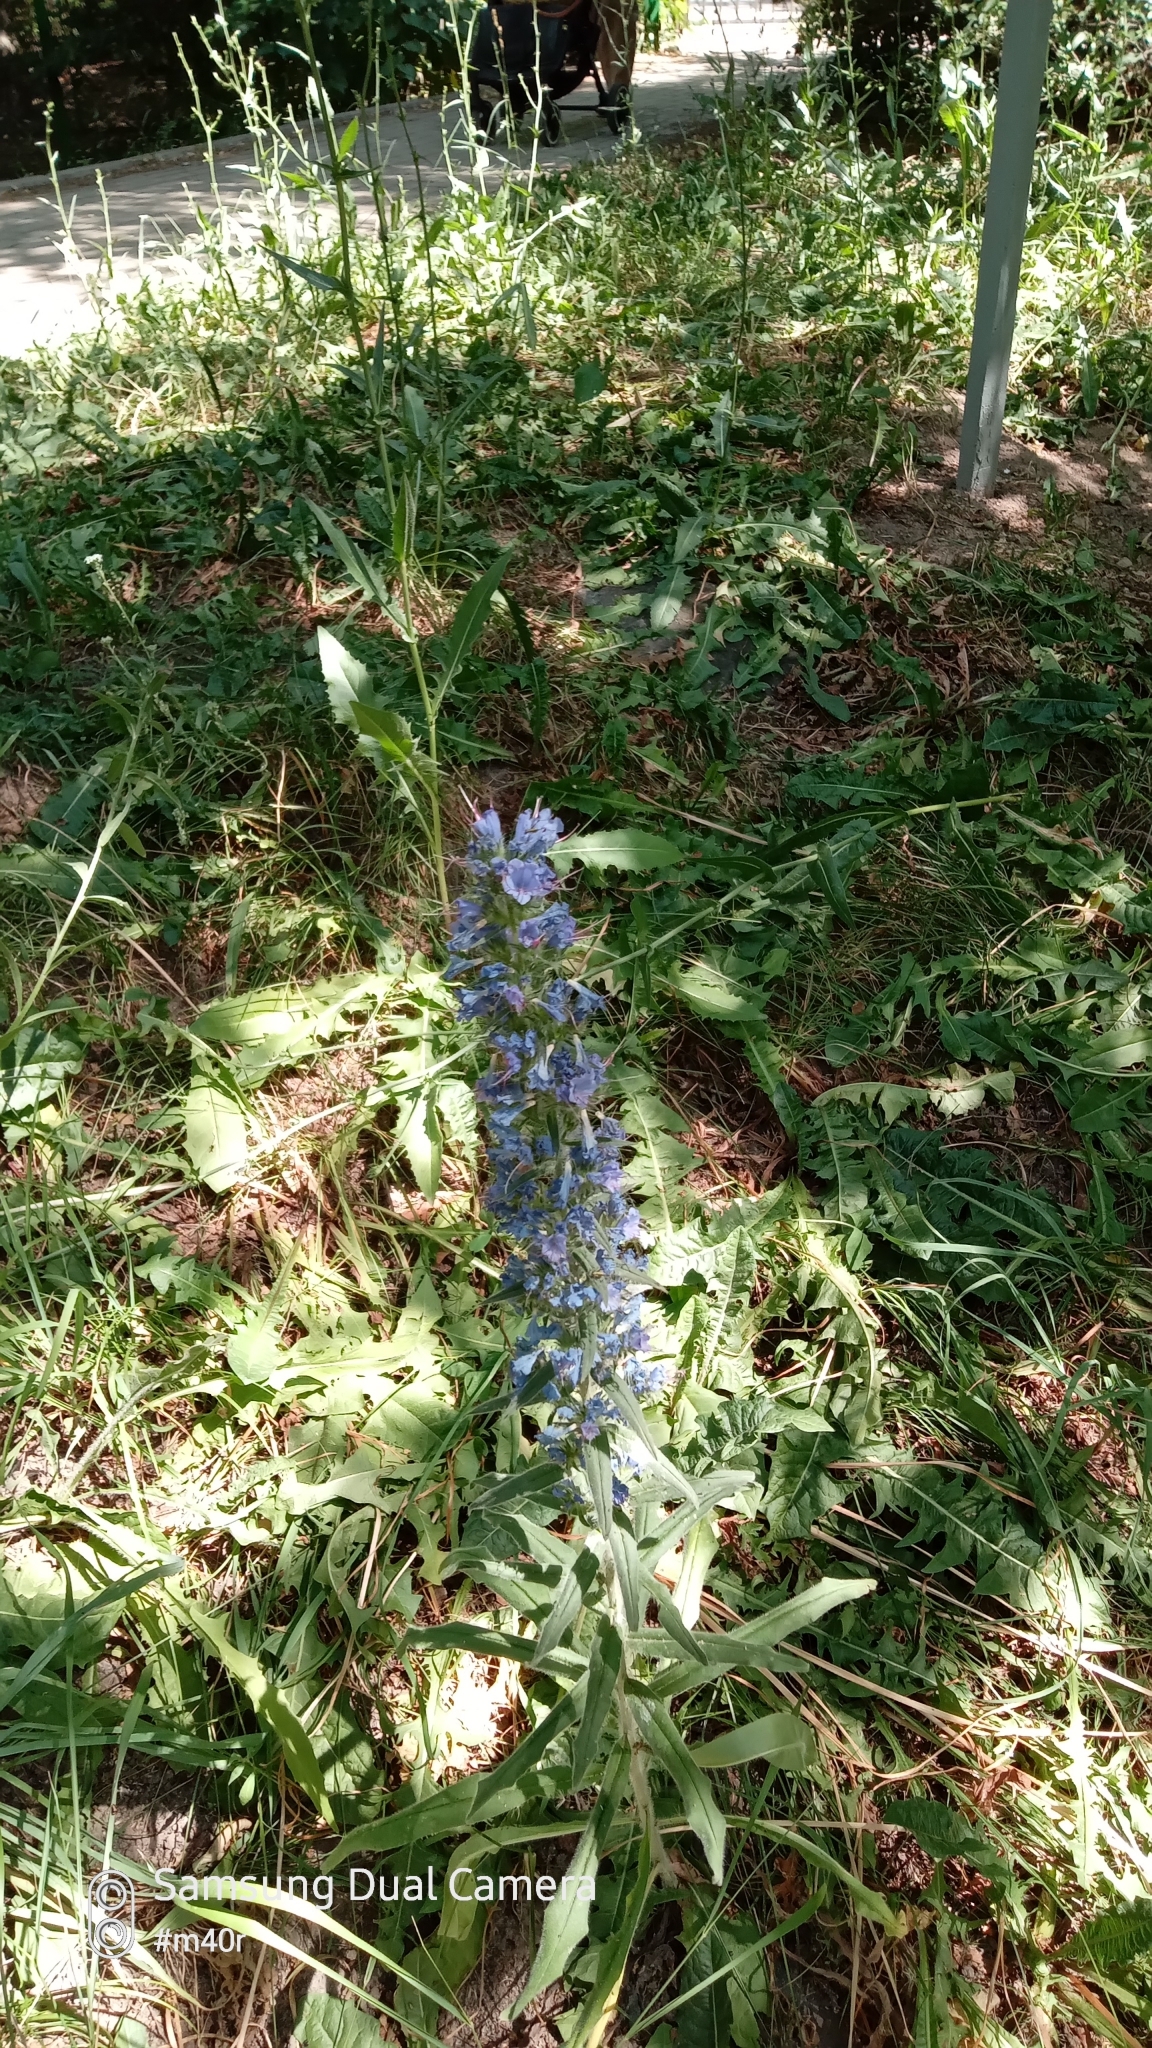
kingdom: Plantae
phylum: Tracheophyta
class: Magnoliopsida
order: Boraginales
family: Boraginaceae
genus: Echium
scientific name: Echium vulgare
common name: Common viper's bugloss
